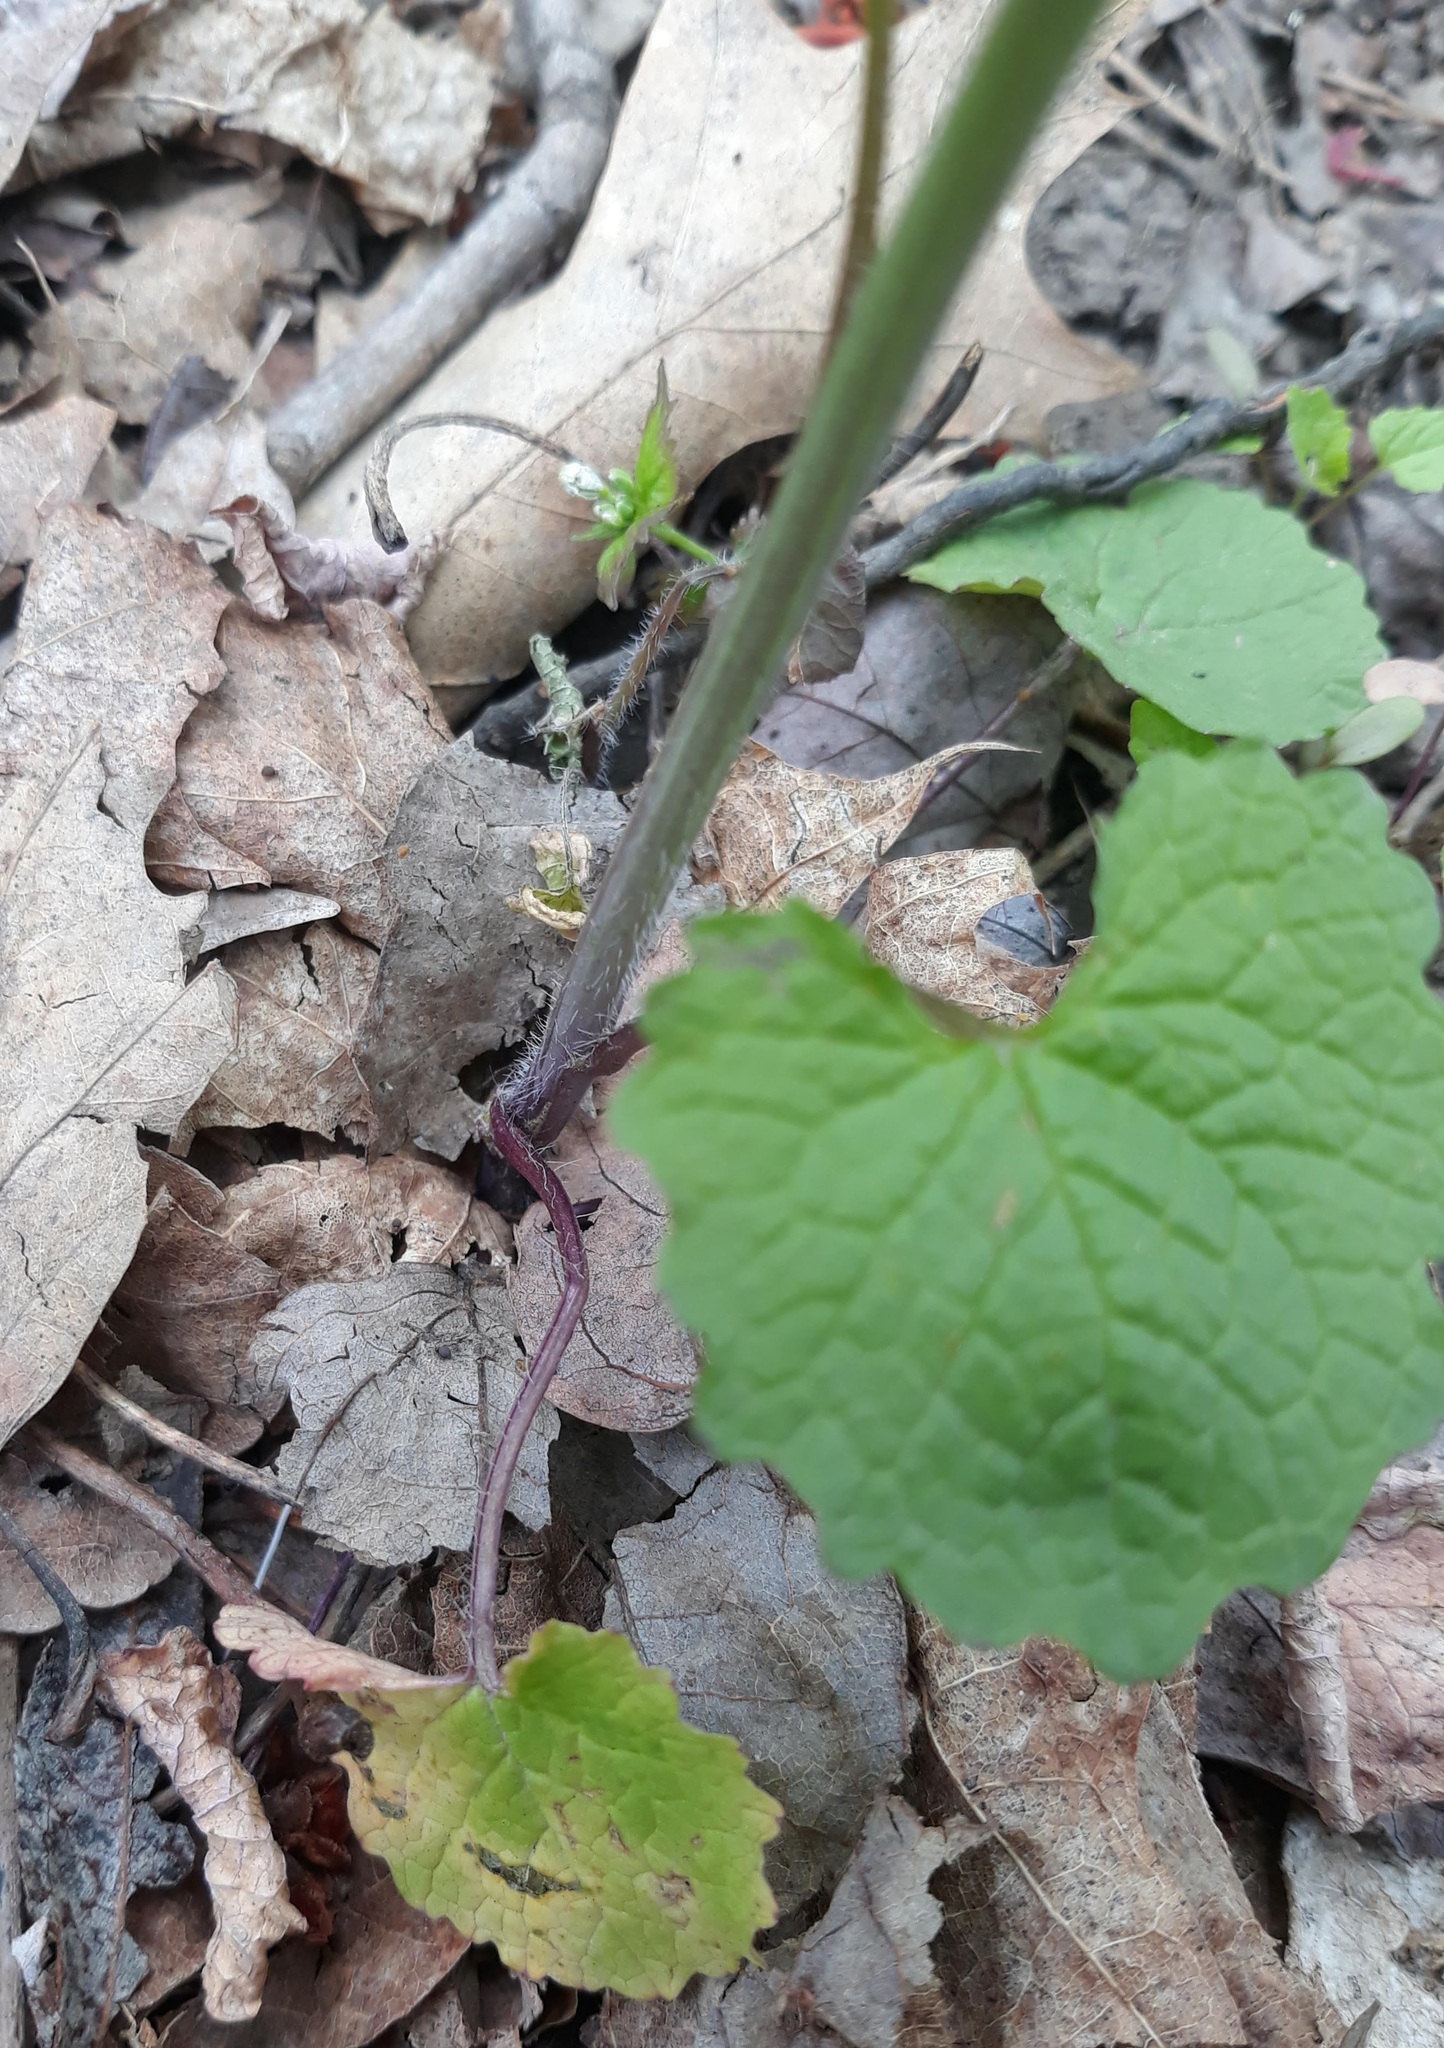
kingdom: Plantae
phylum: Tracheophyta
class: Magnoliopsida
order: Brassicales
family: Brassicaceae
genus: Alliaria
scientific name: Alliaria petiolata
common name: Garlic mustard
